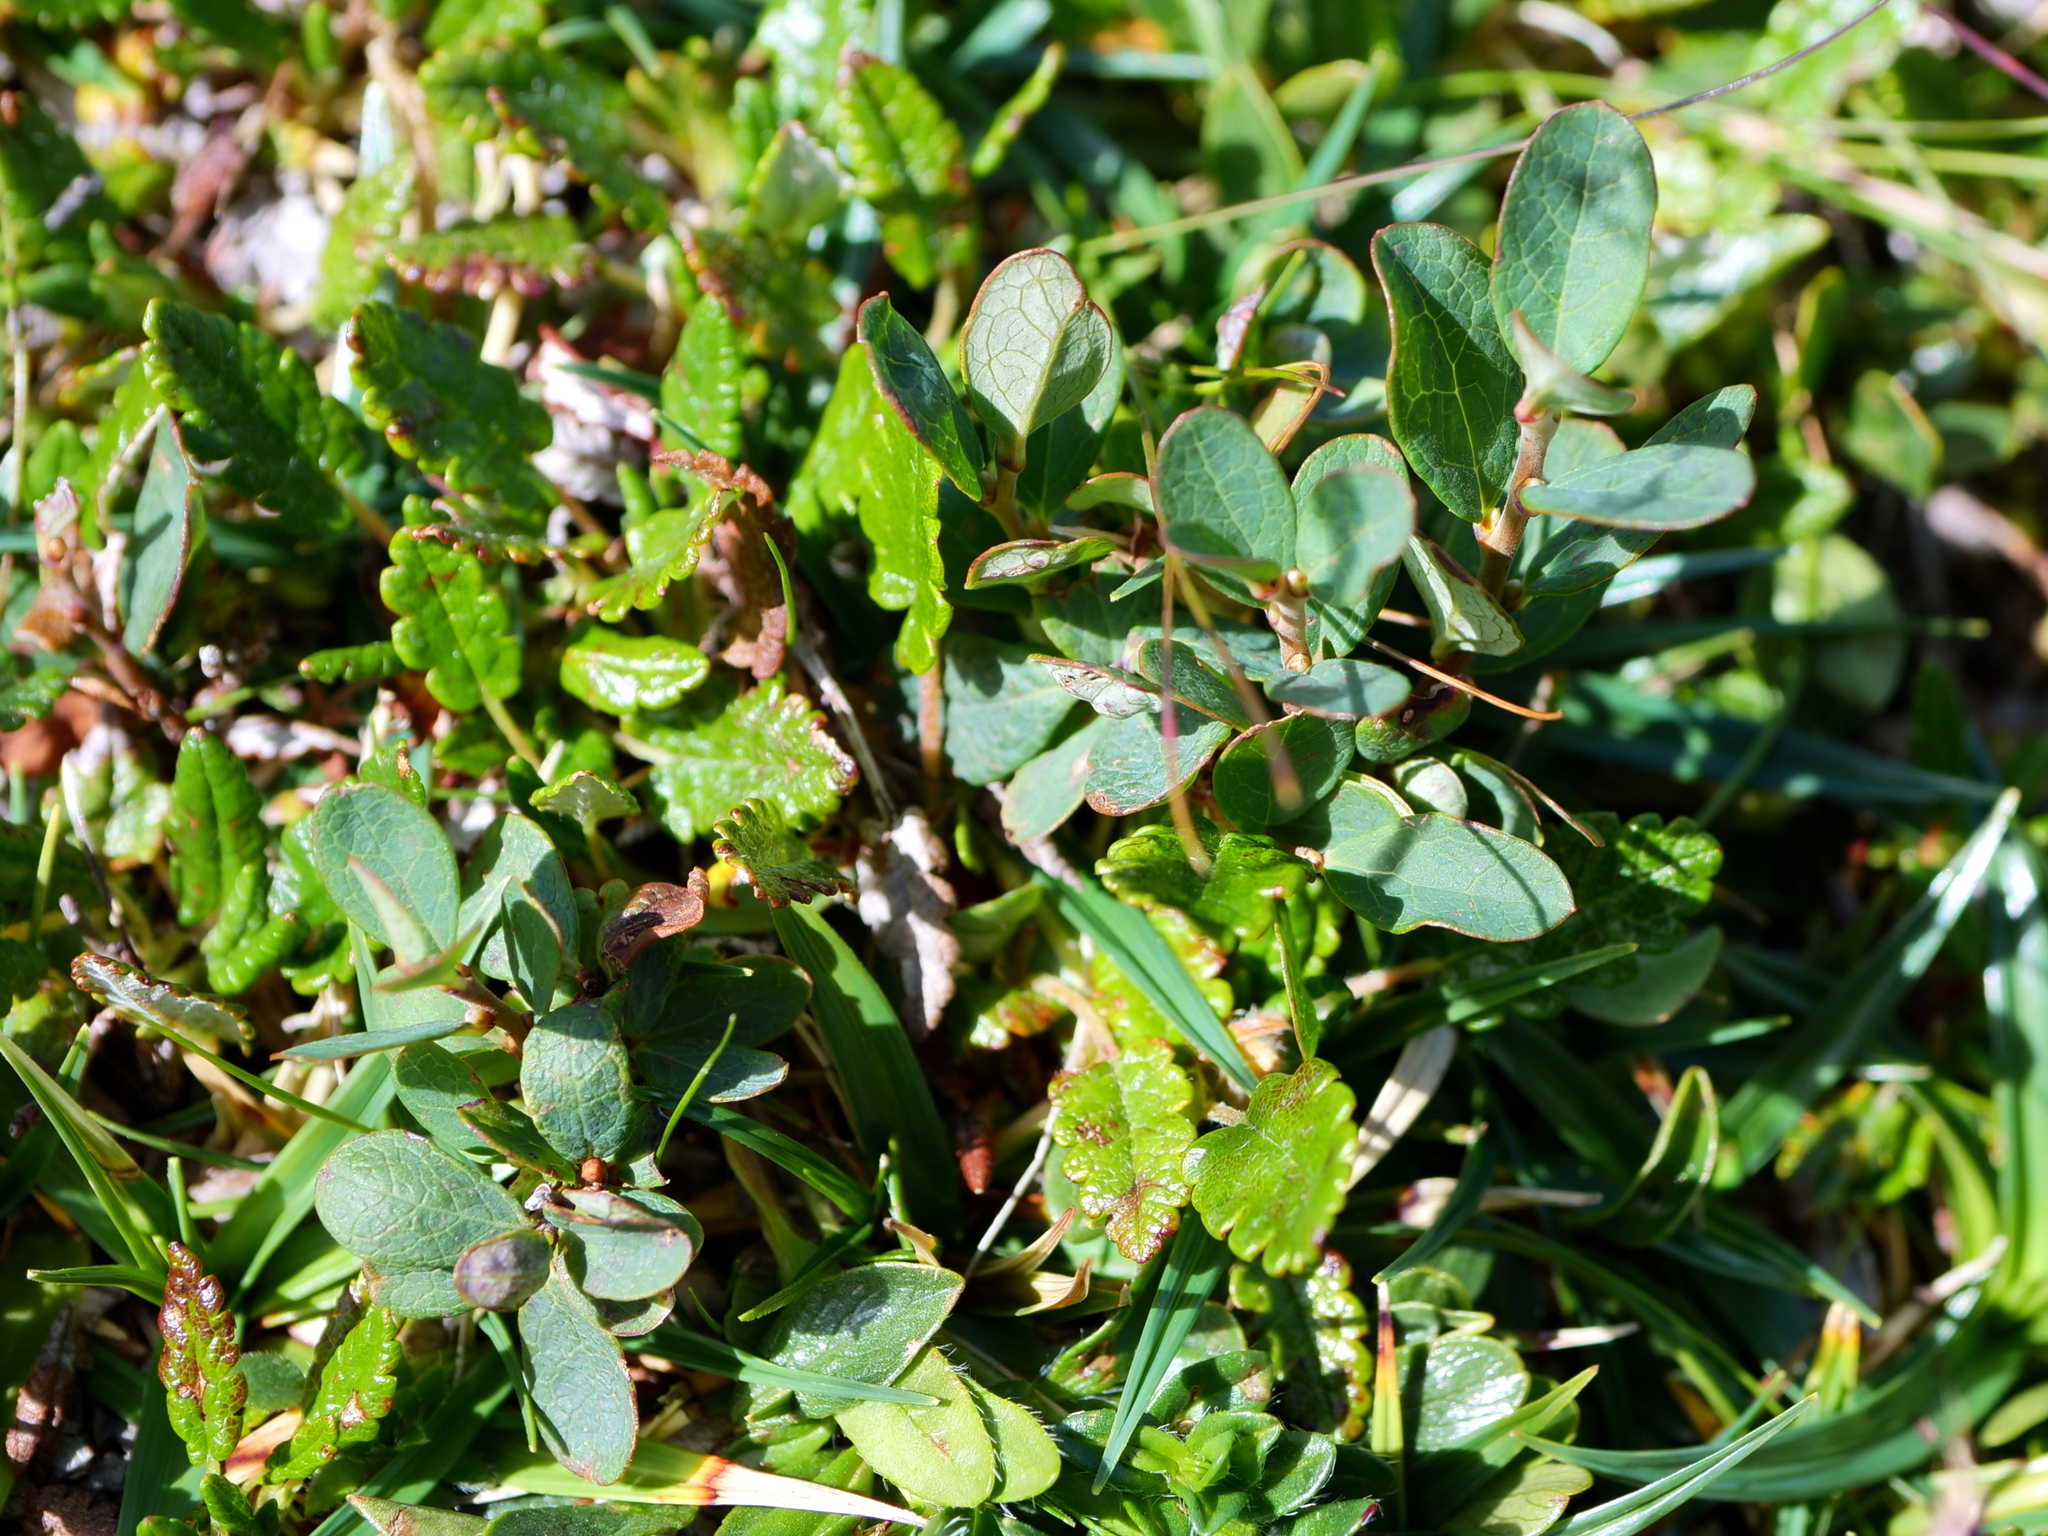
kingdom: Plantae
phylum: Tracheophyta
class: Magnoliopsida
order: Ericales
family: Ericaceae
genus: Vaccinium
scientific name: Vaccinium uliginosum
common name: Bog bilberry
